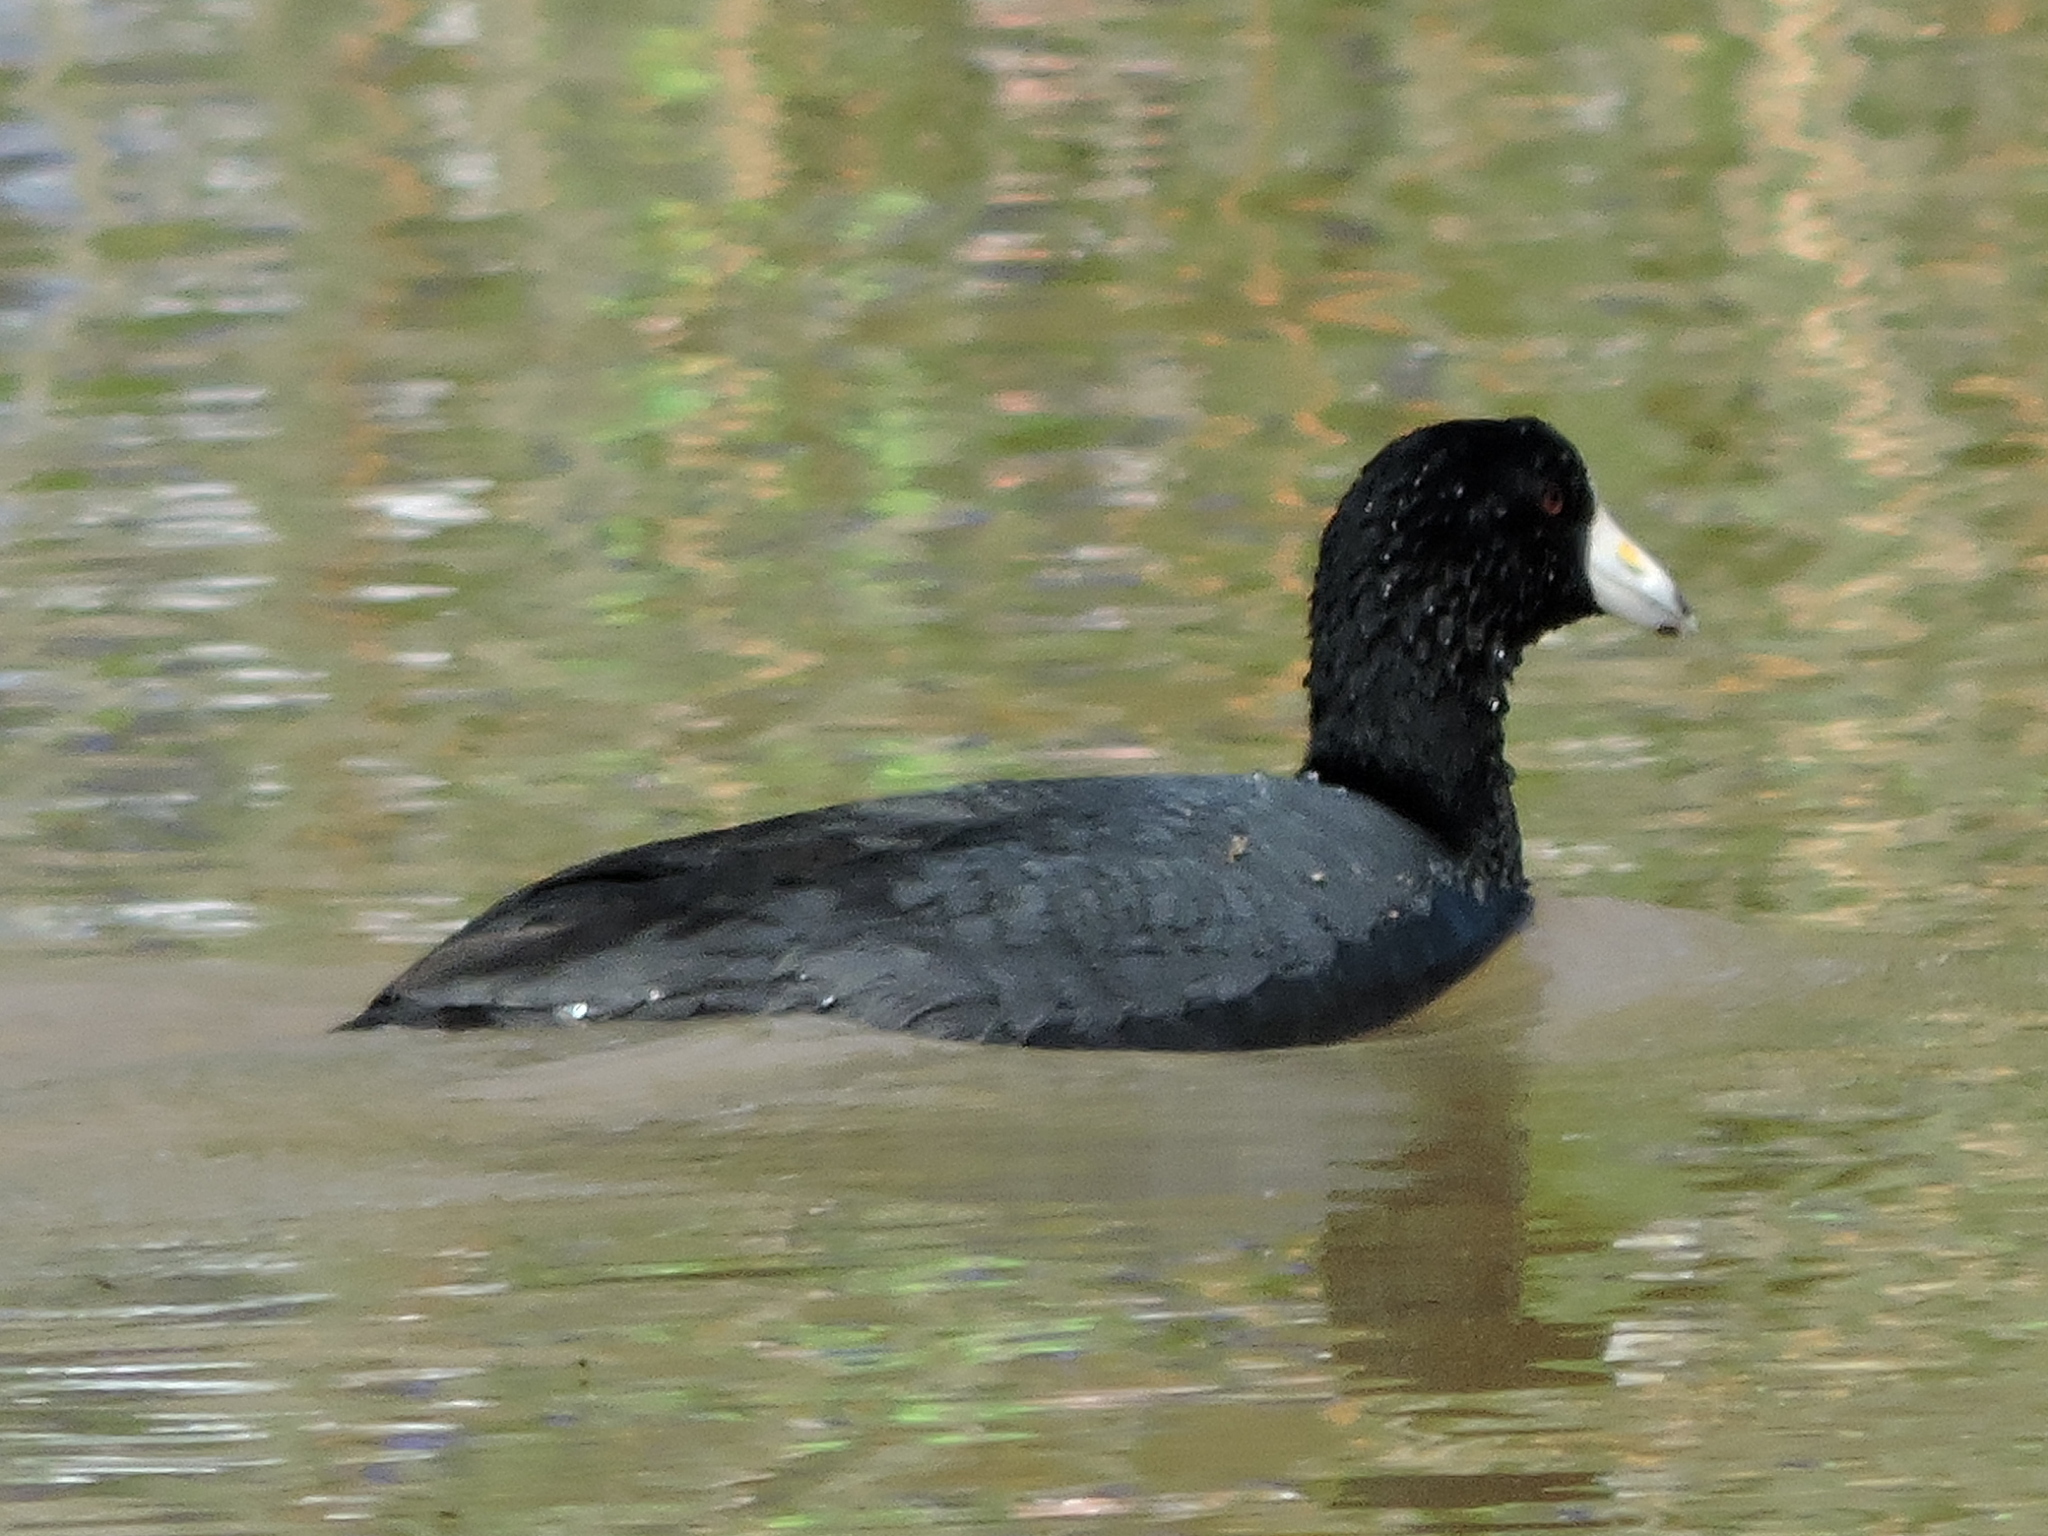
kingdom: Animalia
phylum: Chordata
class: Aves
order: Gruiformes
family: Rallidae
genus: Fulica
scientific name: Fulica americana
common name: American coot
